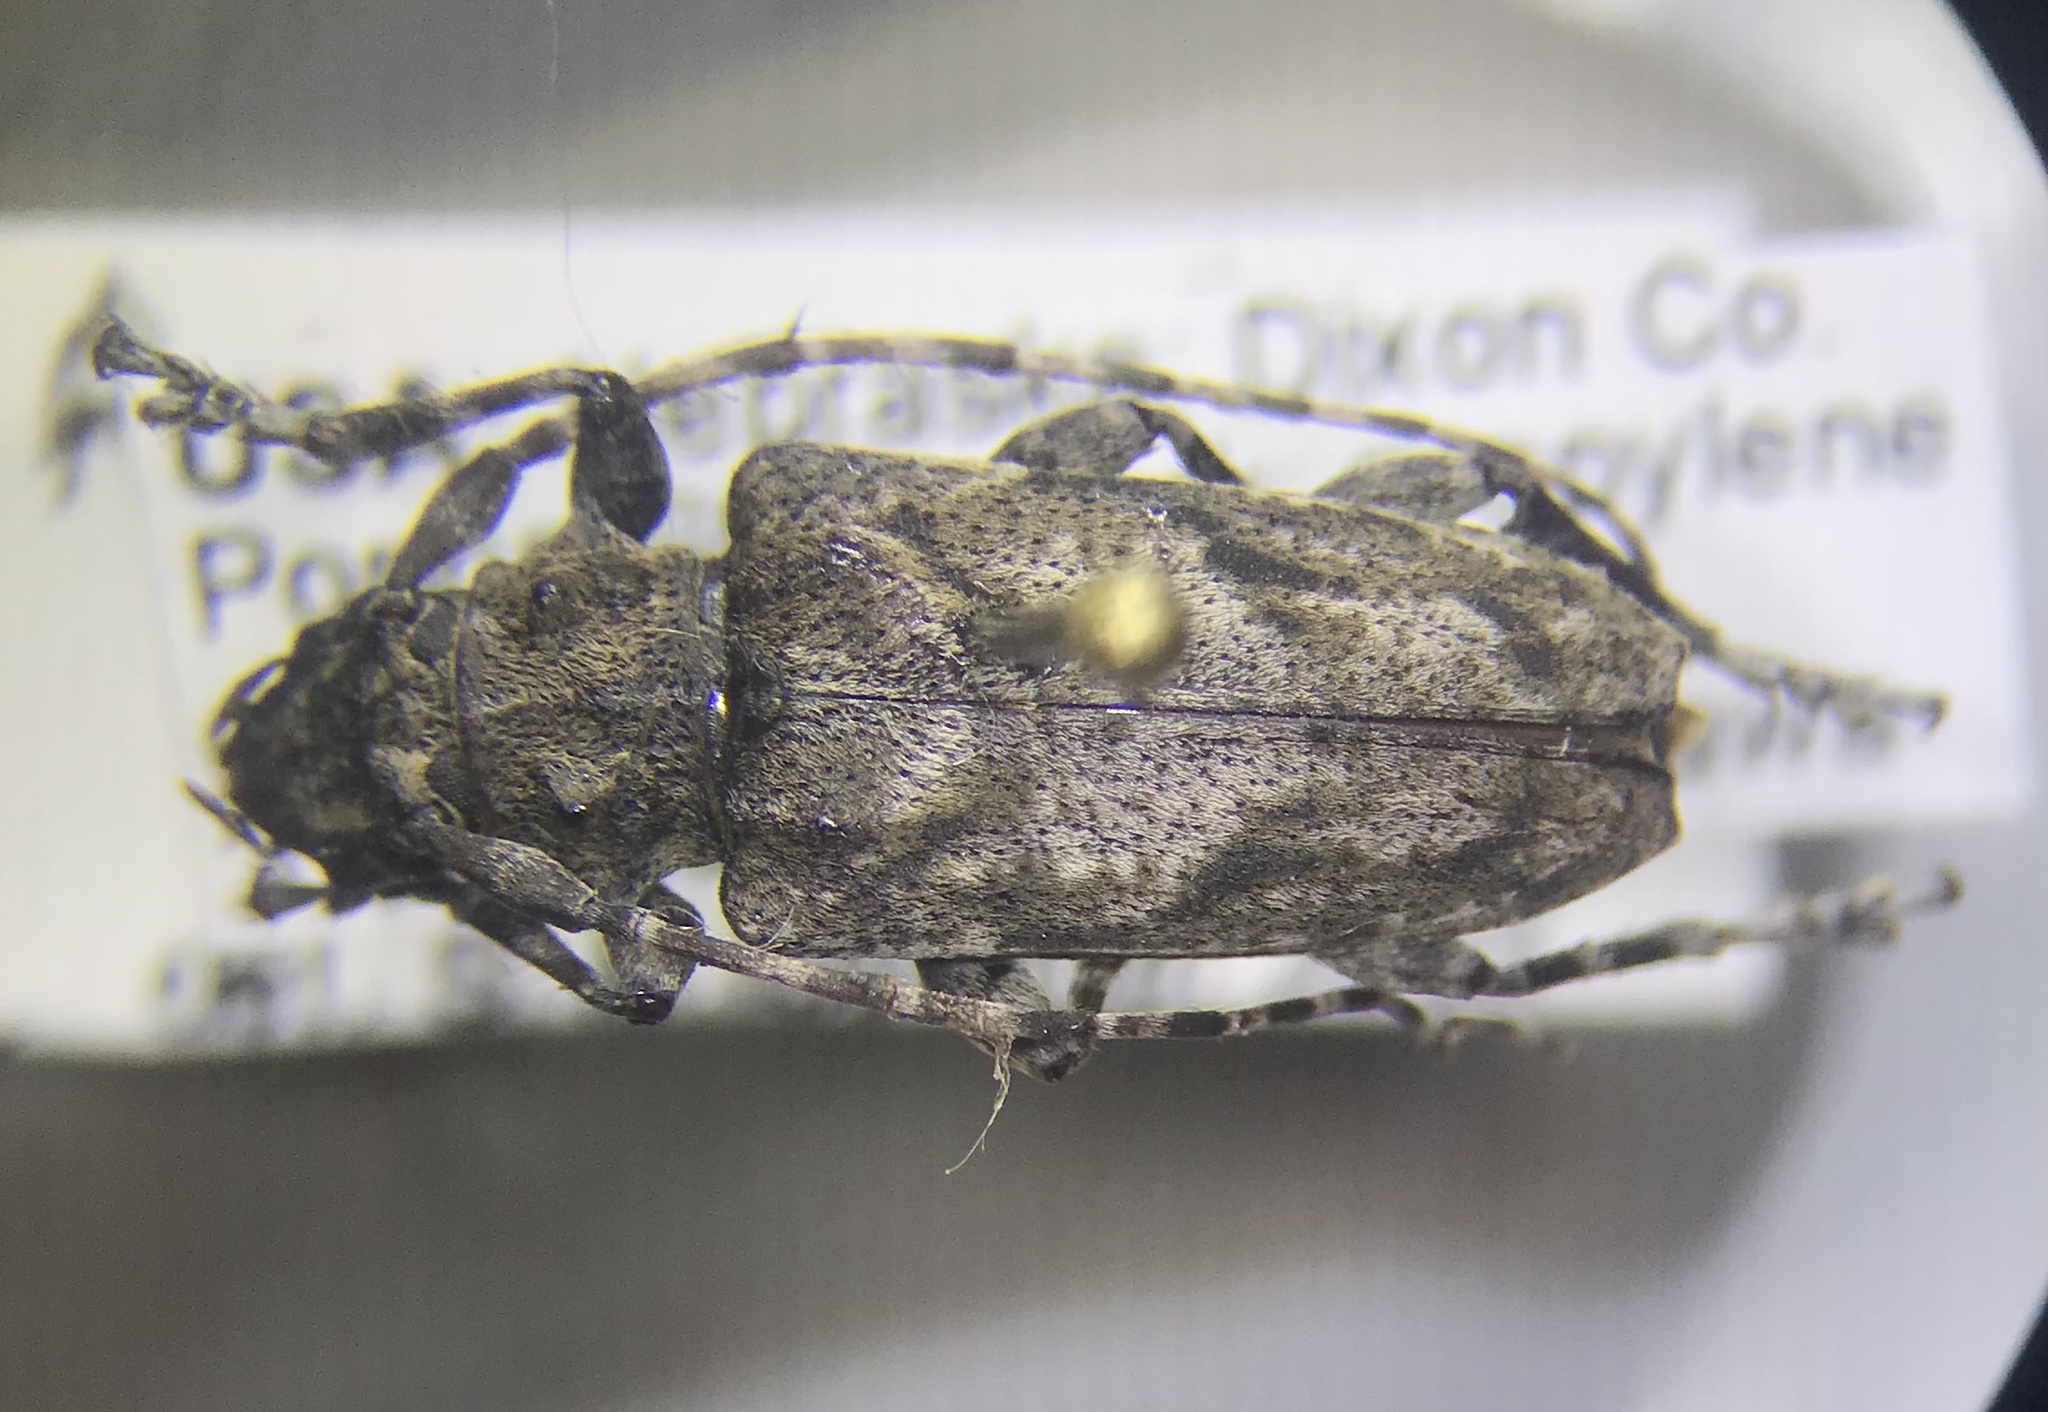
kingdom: Animalia
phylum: Arthropoda
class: Insecta
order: Coleoptera
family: Cerambycidae
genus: Aegomorphus
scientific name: Aegomorphus modestus
